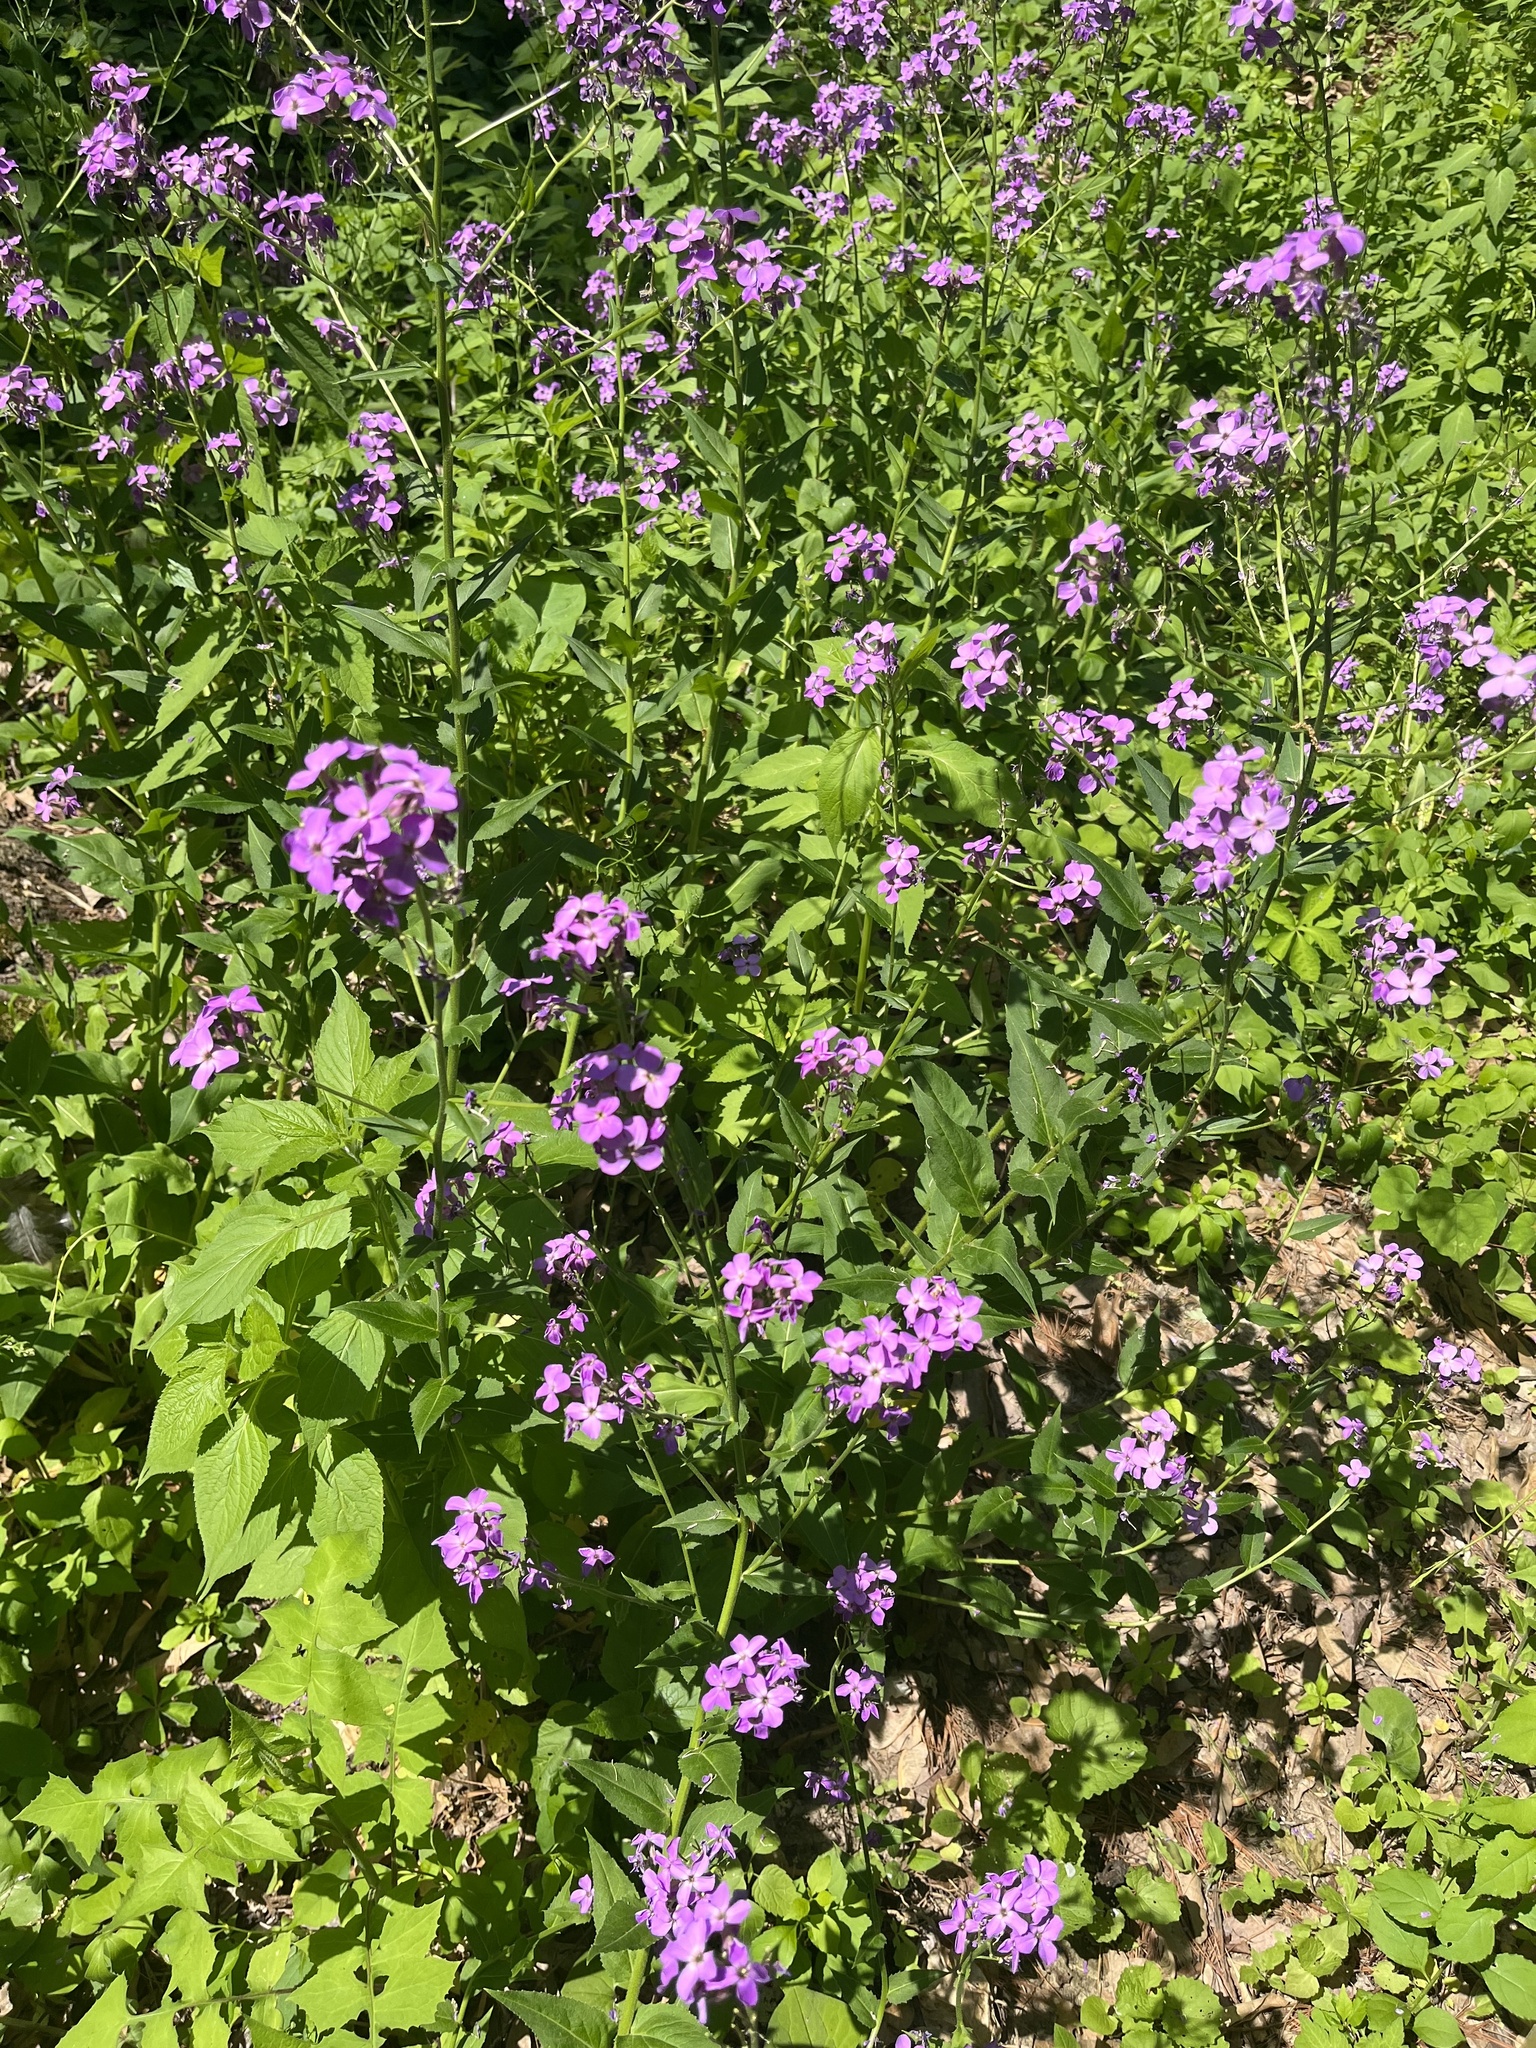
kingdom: Plantae
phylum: Tracheophyta
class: Magnoliopsida
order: Brassicales
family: Brassicaceae
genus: Hesperis
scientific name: Hesperis matronalis
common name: Dame's-violet
